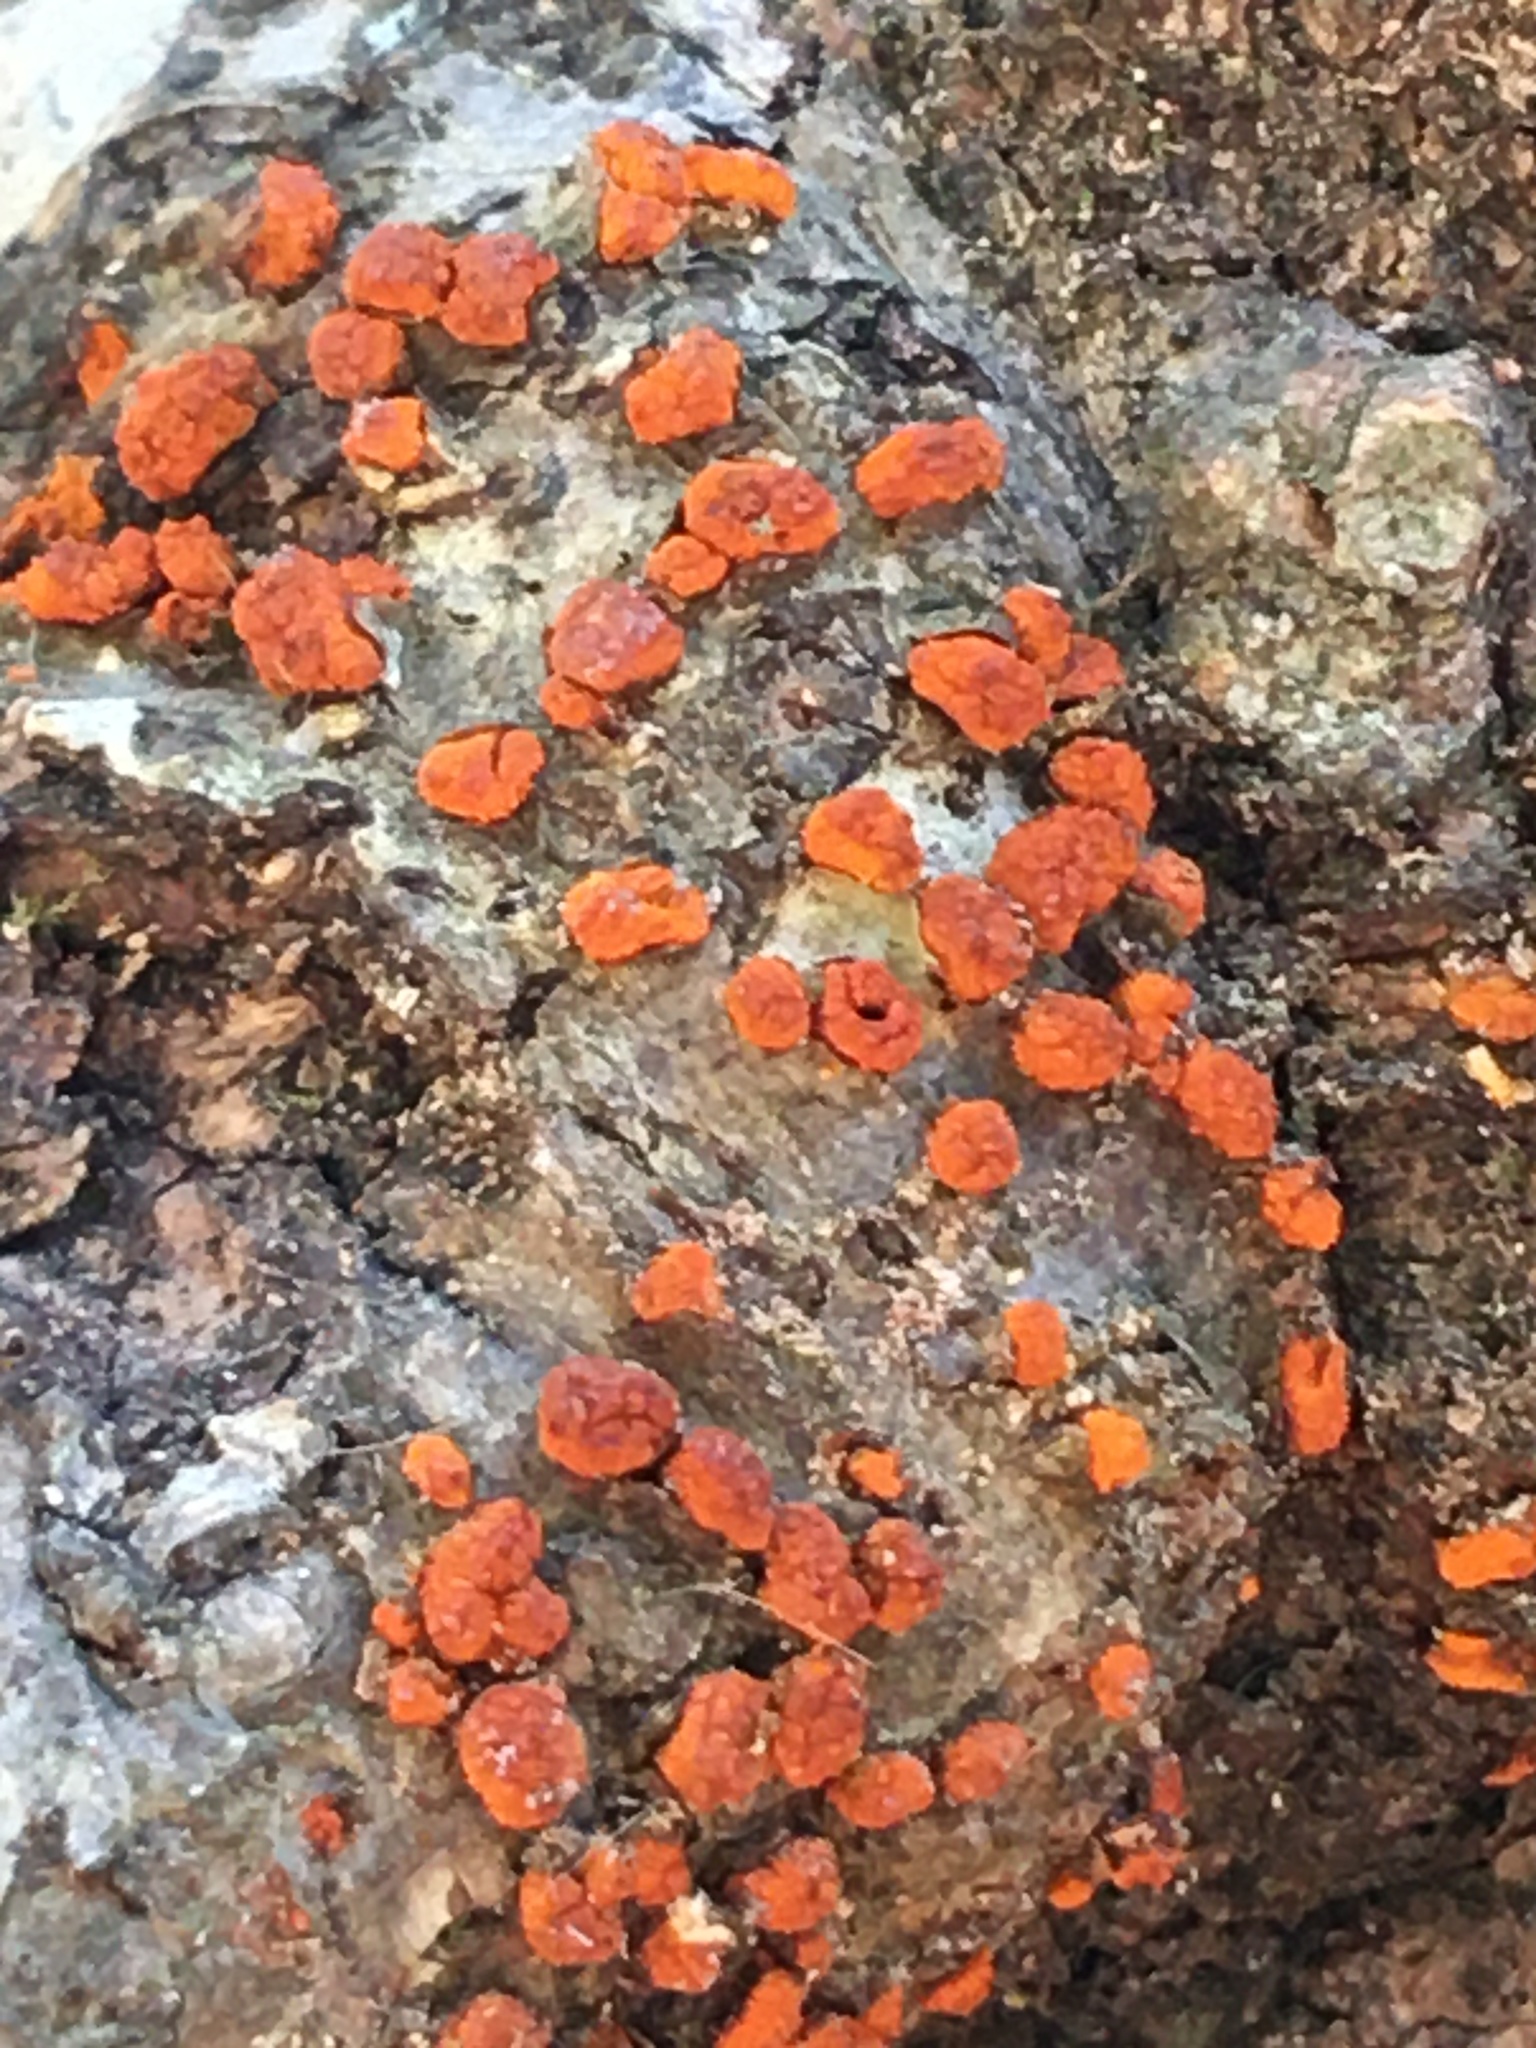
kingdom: Fungi
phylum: Ascomycota
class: Sordariomycetes
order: Diaporthales
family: Cryphonectriaceae
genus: Amphilogia
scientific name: Amphilogia gyrosa
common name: Orange hobnail canker
